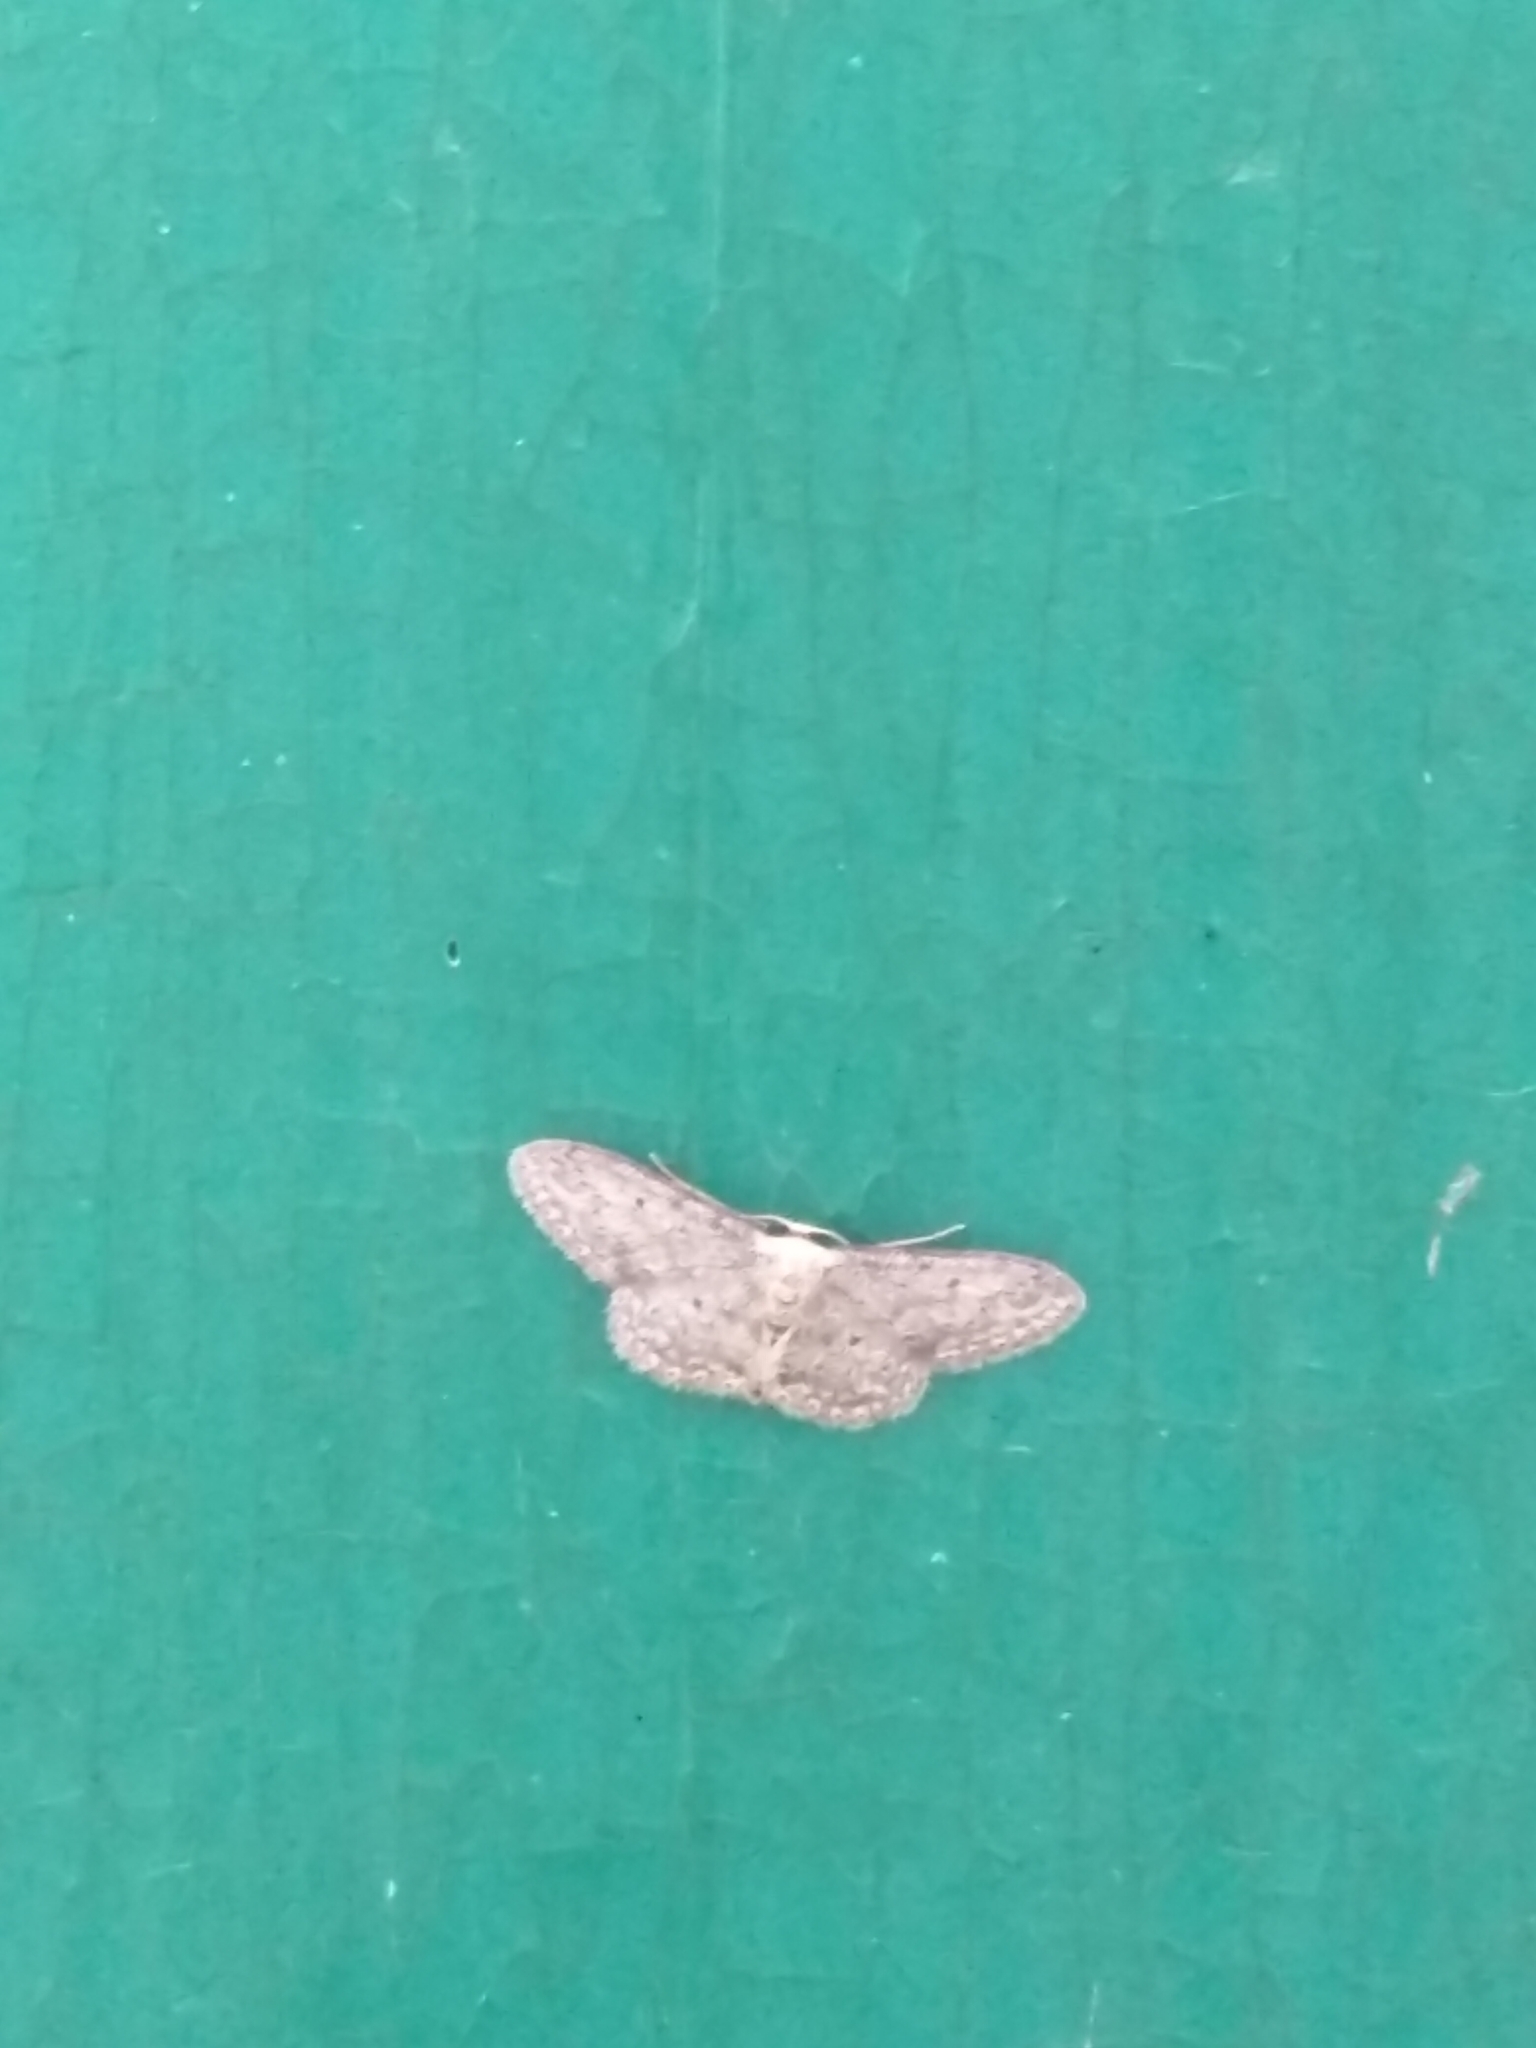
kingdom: Animalia
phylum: Arthropoda
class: Insecta
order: Lepidoptera
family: Geometridae
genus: Idaea
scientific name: Idaea seriata
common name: Small dusty wave
